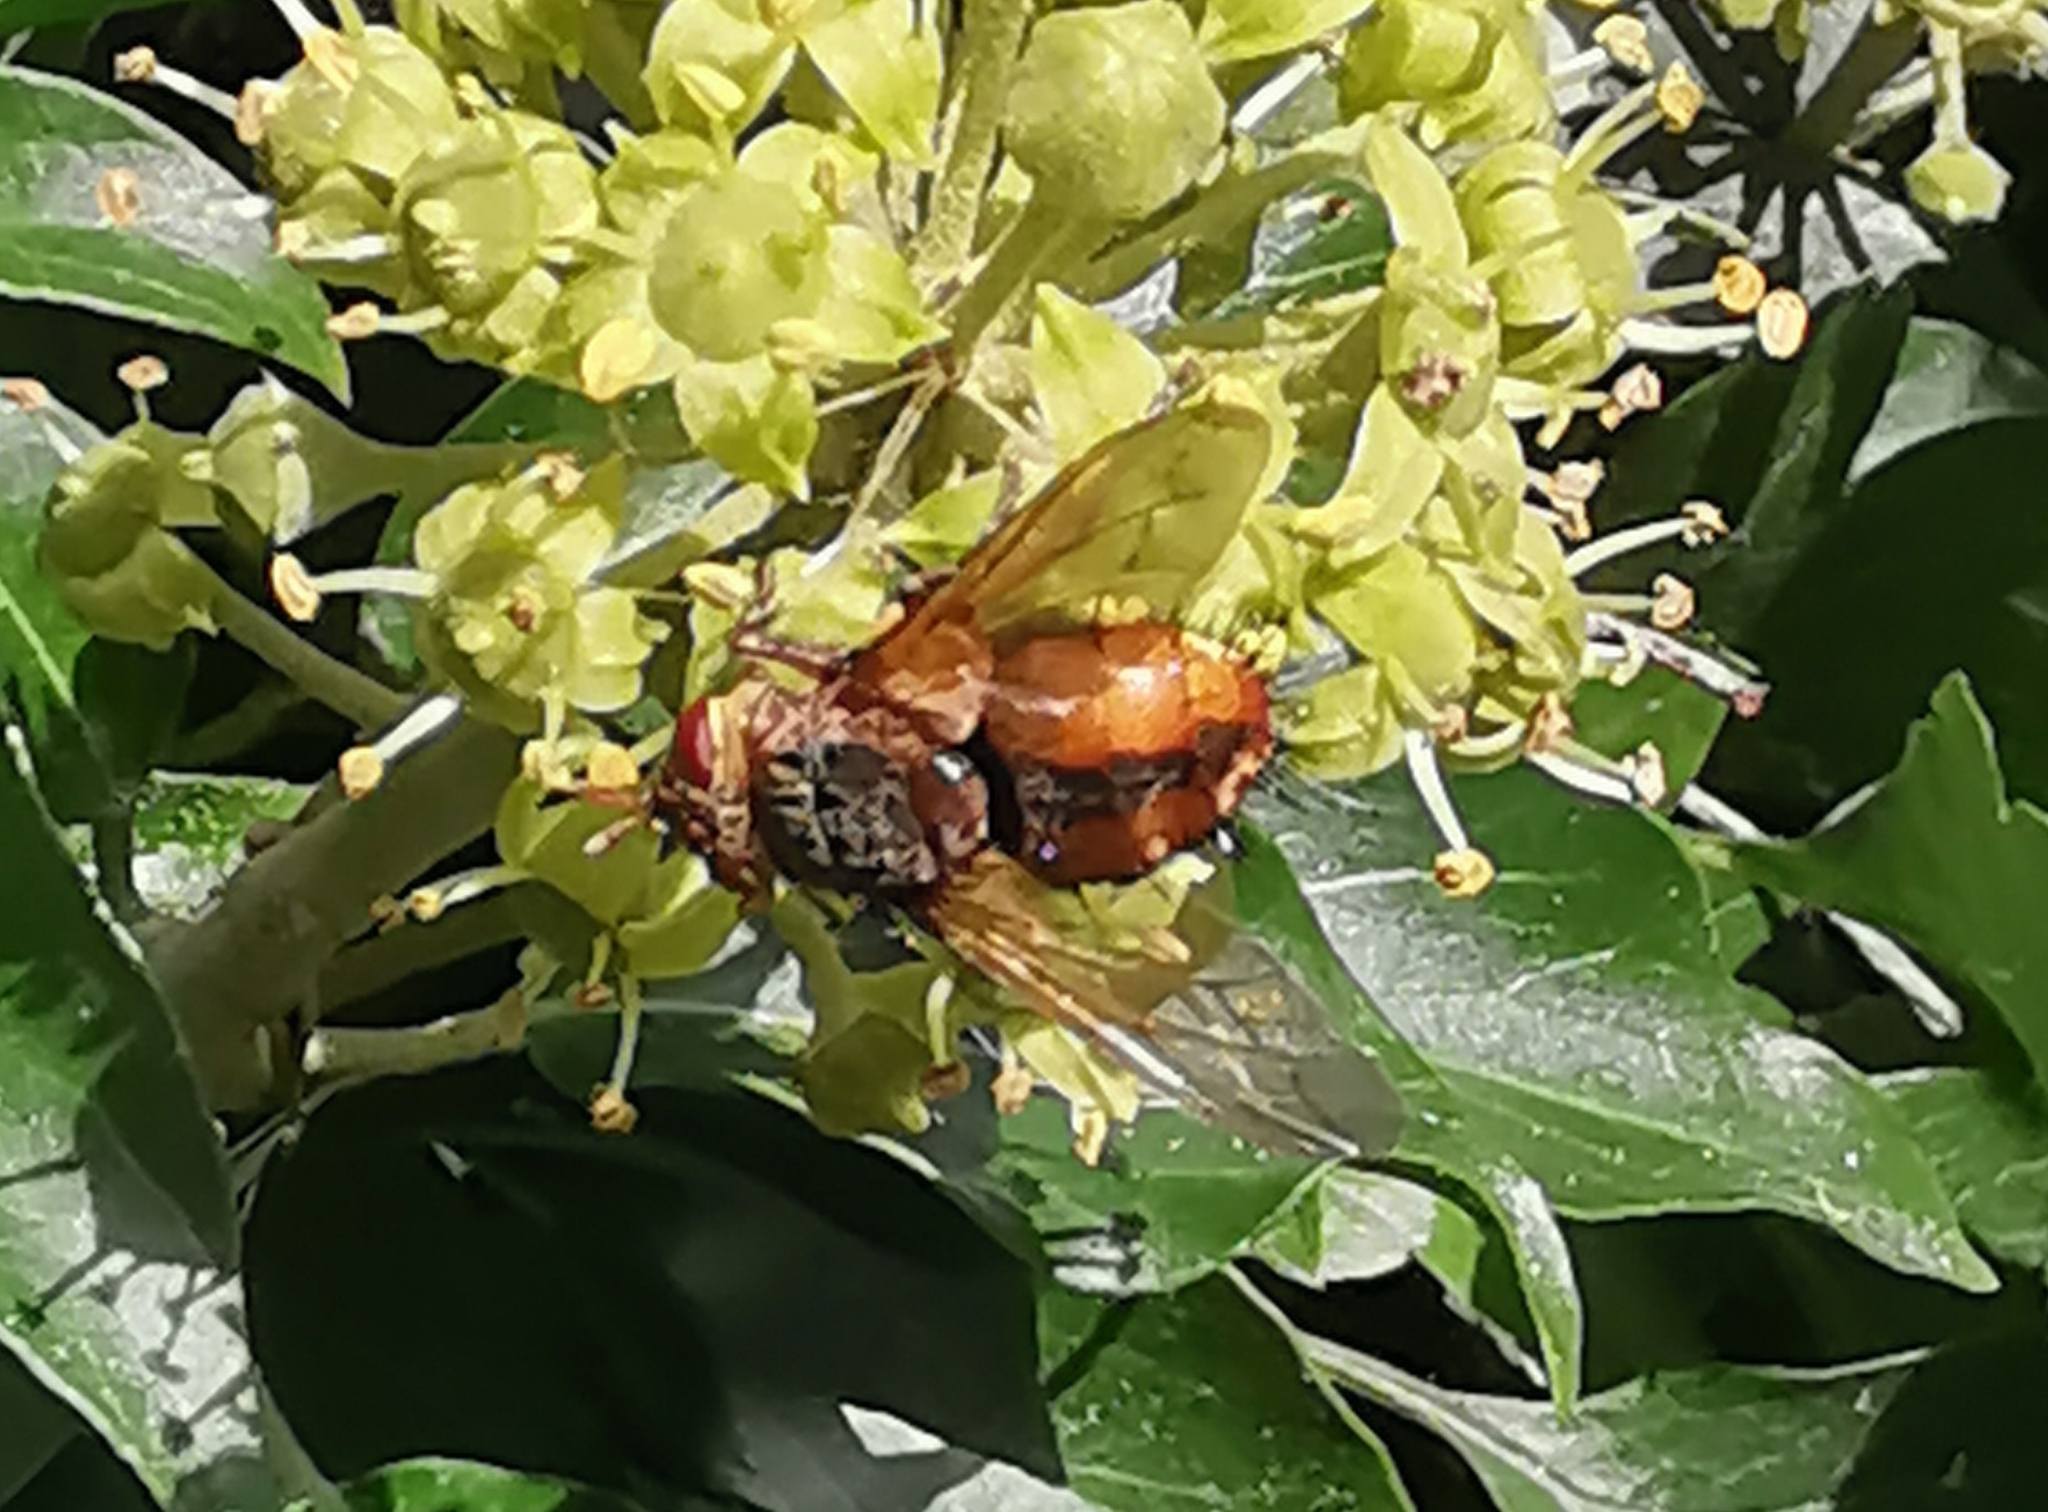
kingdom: Animalia
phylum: Arthropoda
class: Insecta
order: Diptera
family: Tachinidae
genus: Tachina
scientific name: Tachina fera
